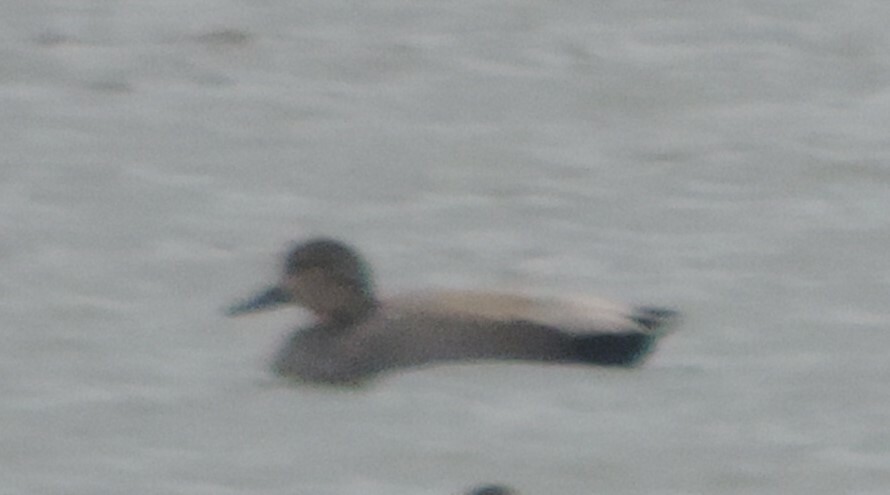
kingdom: Animalia
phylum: Chordata
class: Aves
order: Anseriformes
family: Anatidae
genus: Mareca
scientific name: Mareca strepera
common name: Gadwall
